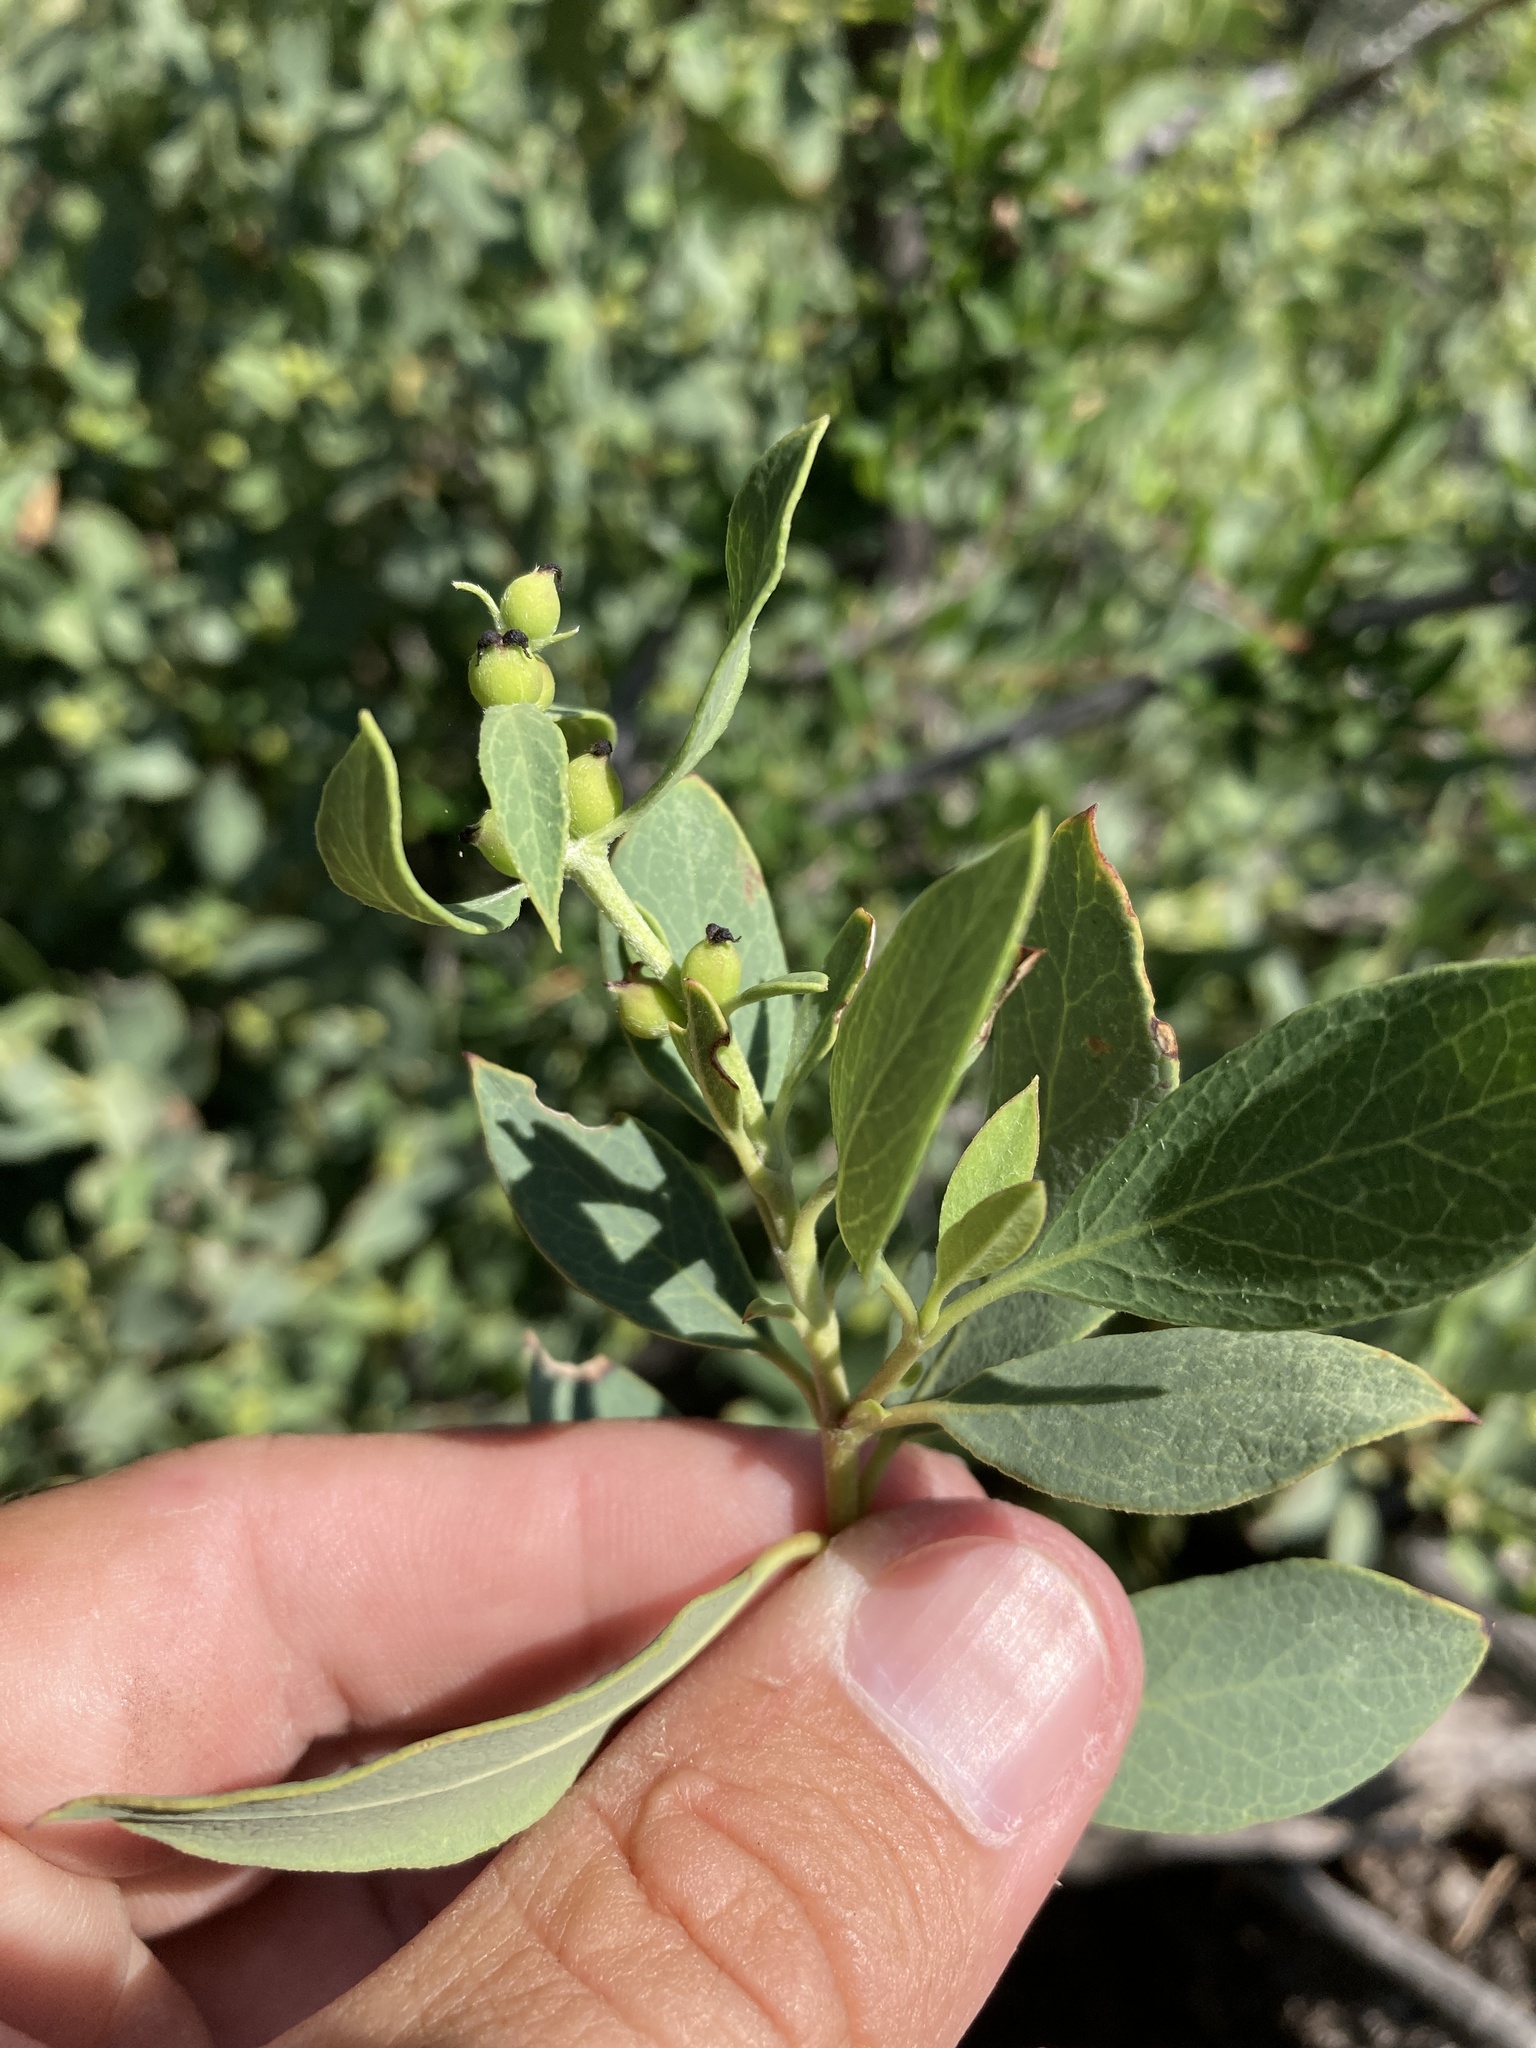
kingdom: Plantae
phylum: Tracheophyta
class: Magnoliopsida
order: Garryales
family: Garryaceae
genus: Garrya
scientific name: Garrya wrightii
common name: Wright's silktassel
